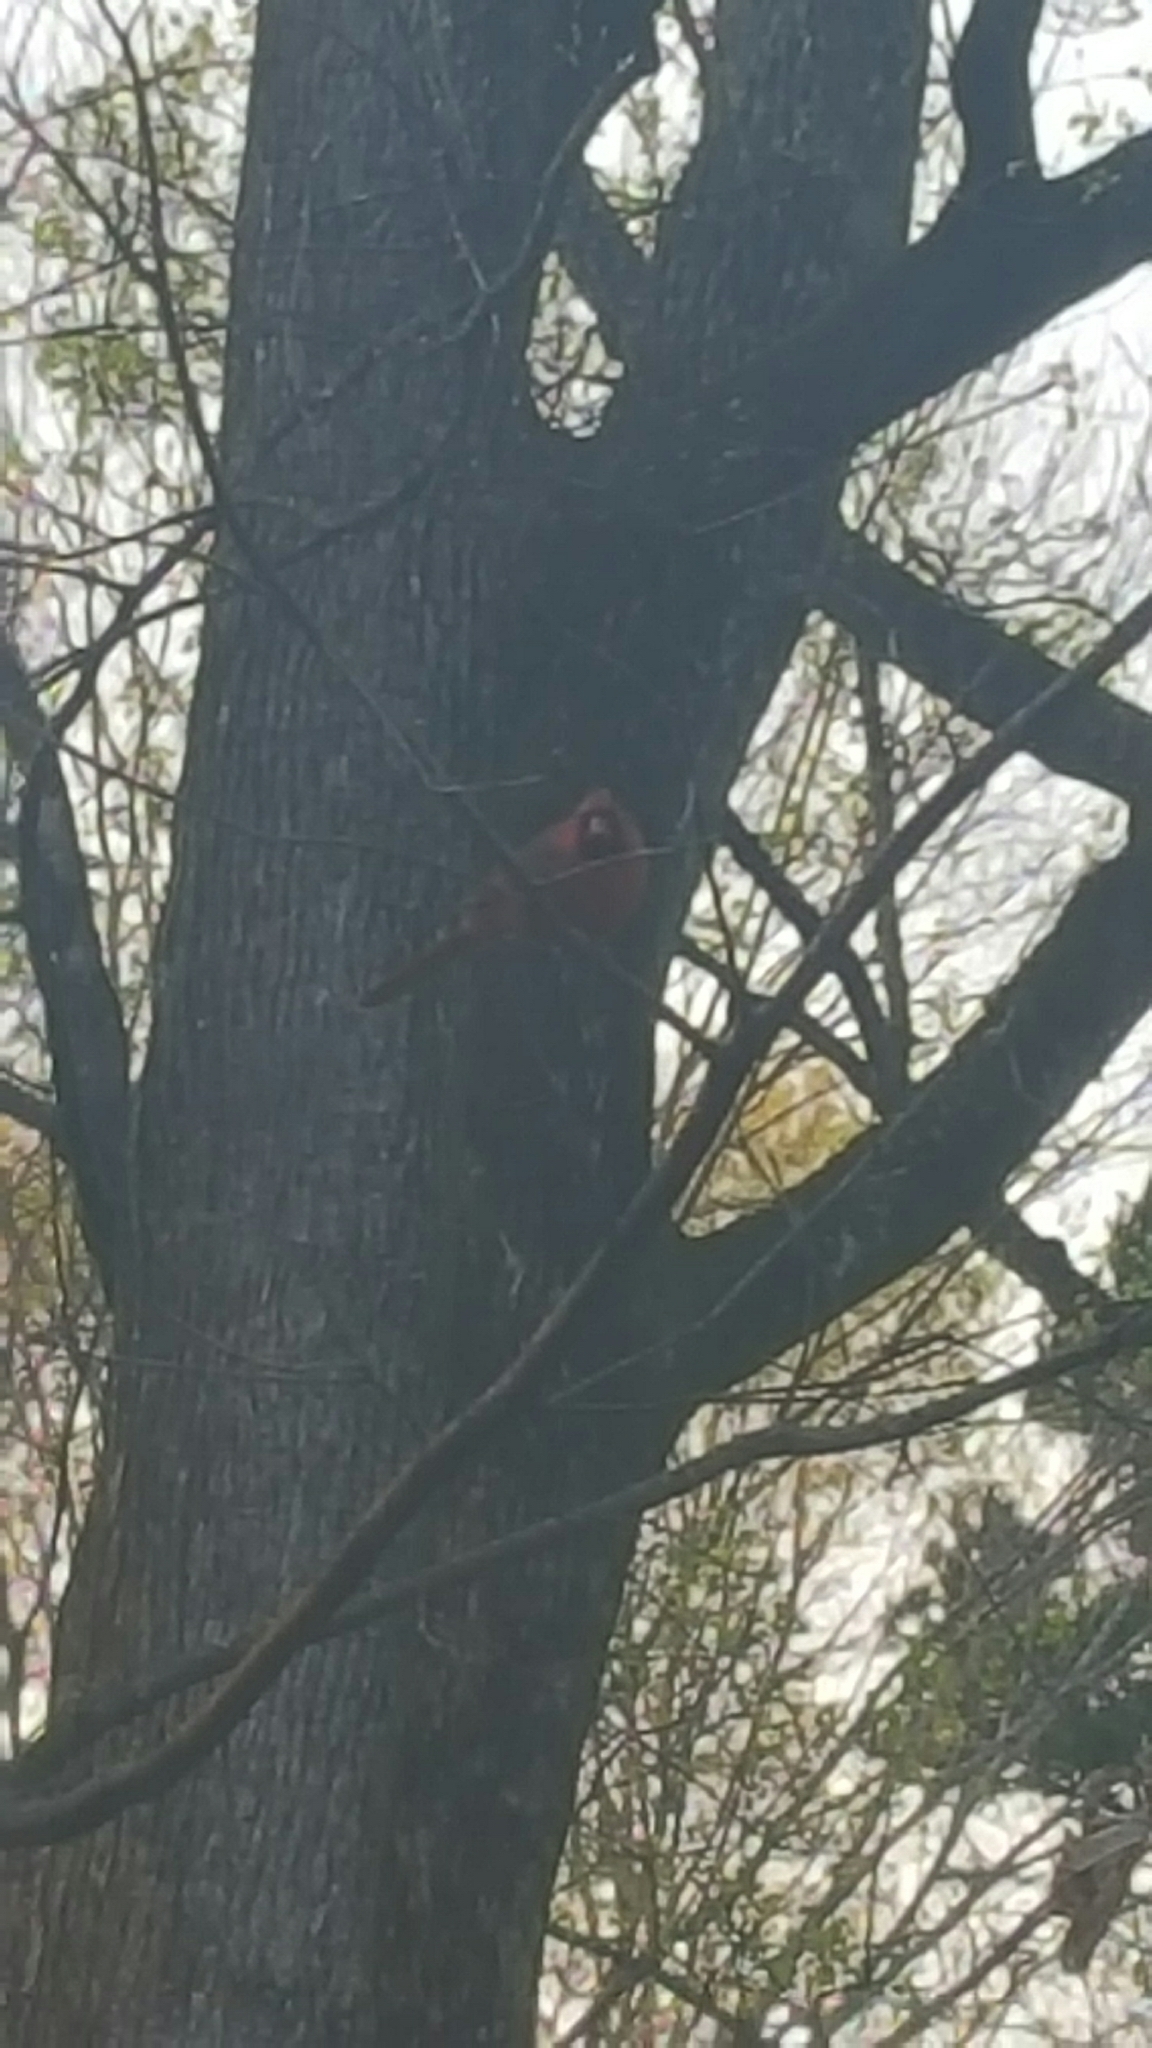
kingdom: Animalia
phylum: Chordata
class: Aves
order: Passeriformes
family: Cardinalidae
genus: Cardinalis
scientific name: Cardinalis cardinalis
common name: Northern cardinal
